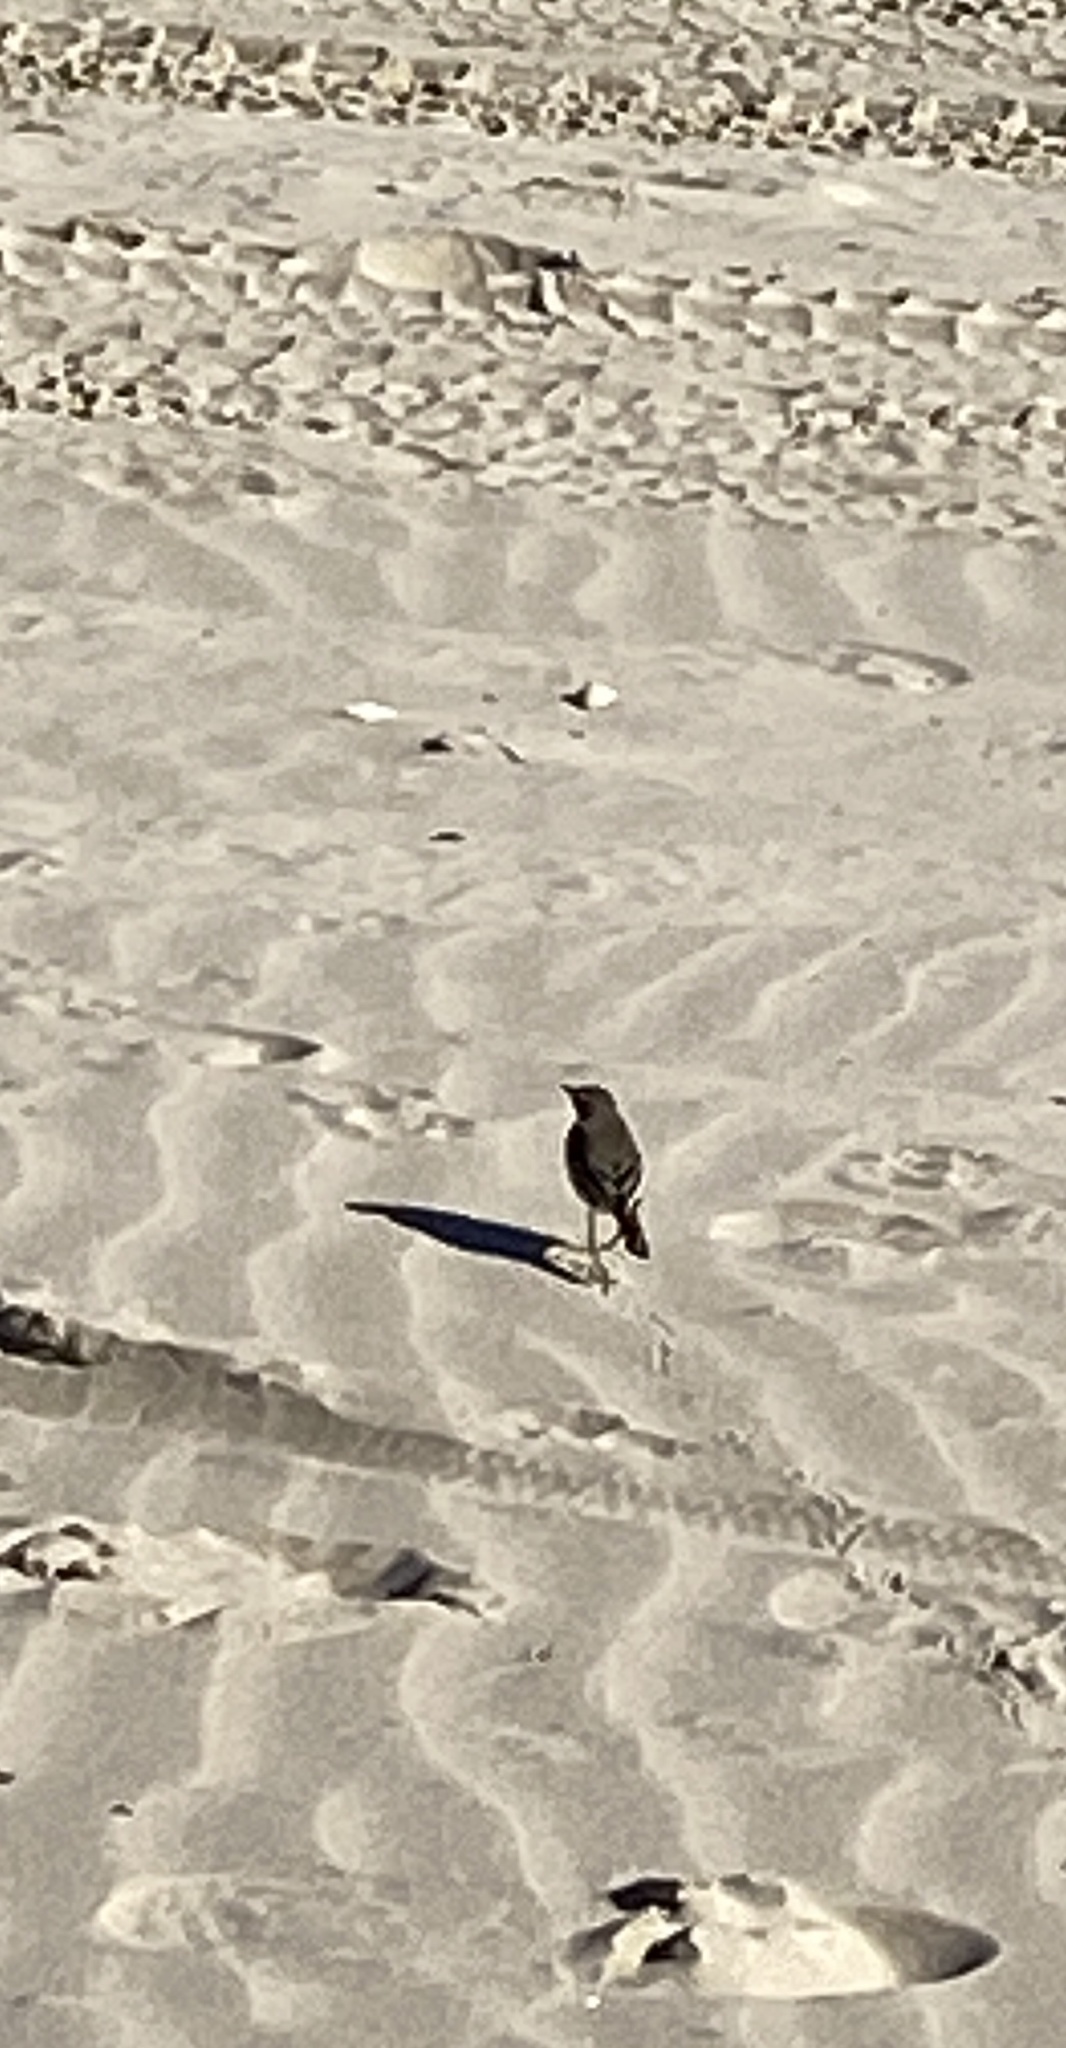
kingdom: Animalia
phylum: Chordata
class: Aves
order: Passeriformes
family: Motacillidae
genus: Anthus
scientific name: Anthus rubescens
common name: Buff-bellied pipit
